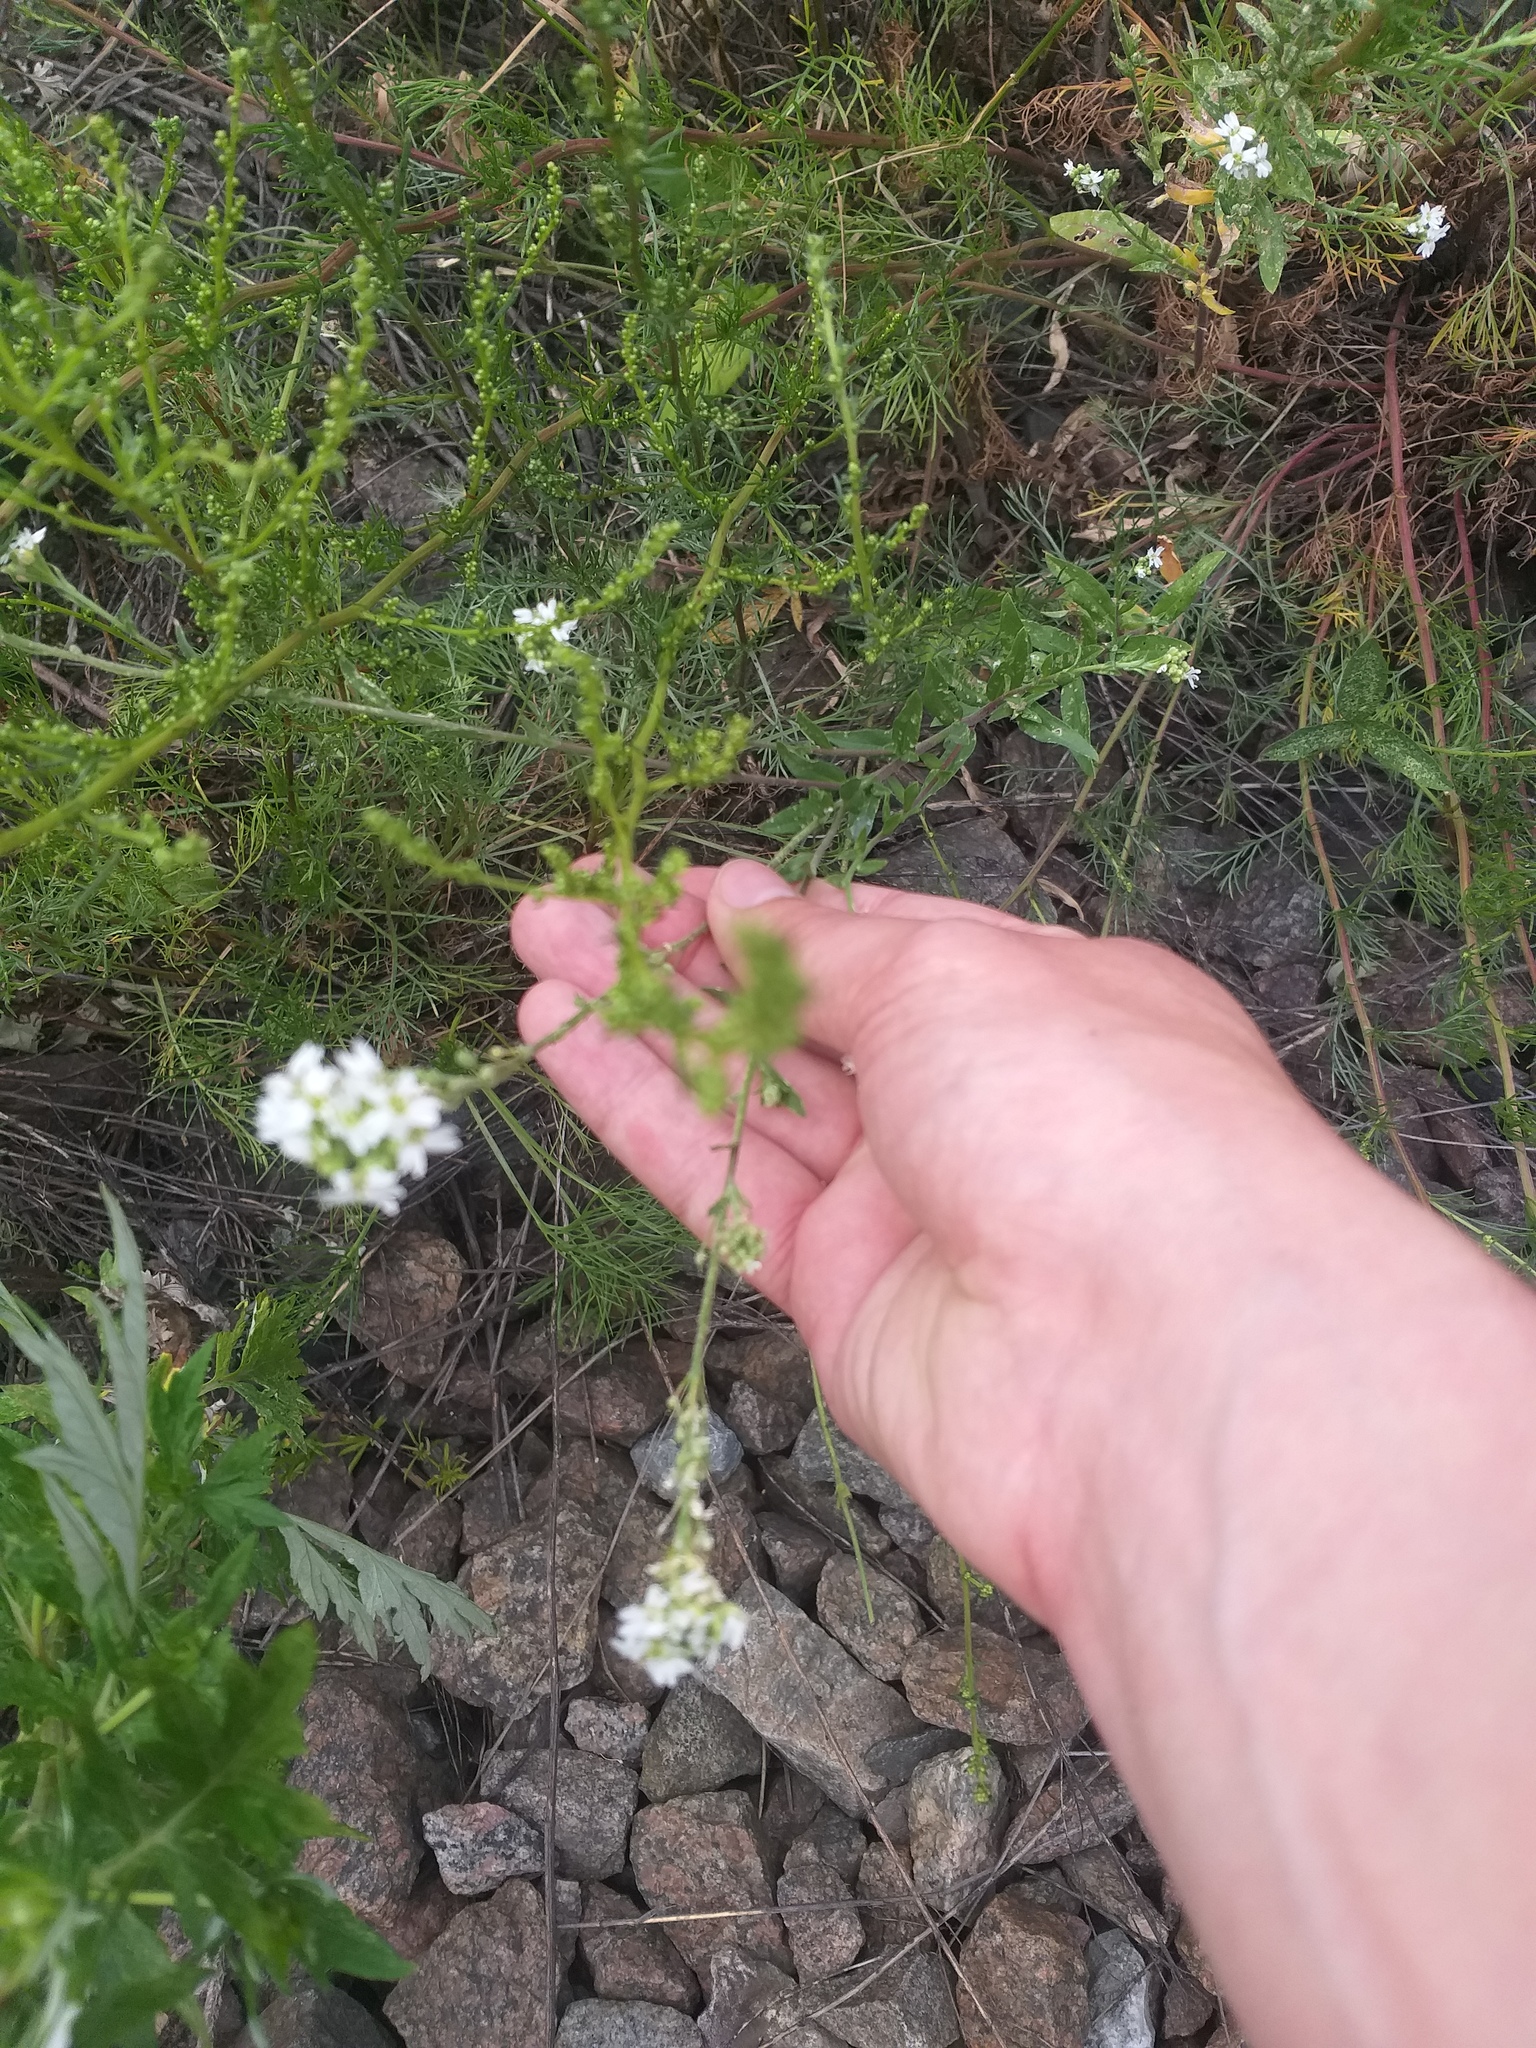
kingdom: Plantae
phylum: Tracheophyta
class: Magnoliopsida
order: Brassicales
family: Brassicaceae
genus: Berteroa
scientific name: Berteroa incana
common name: Hoary alison
